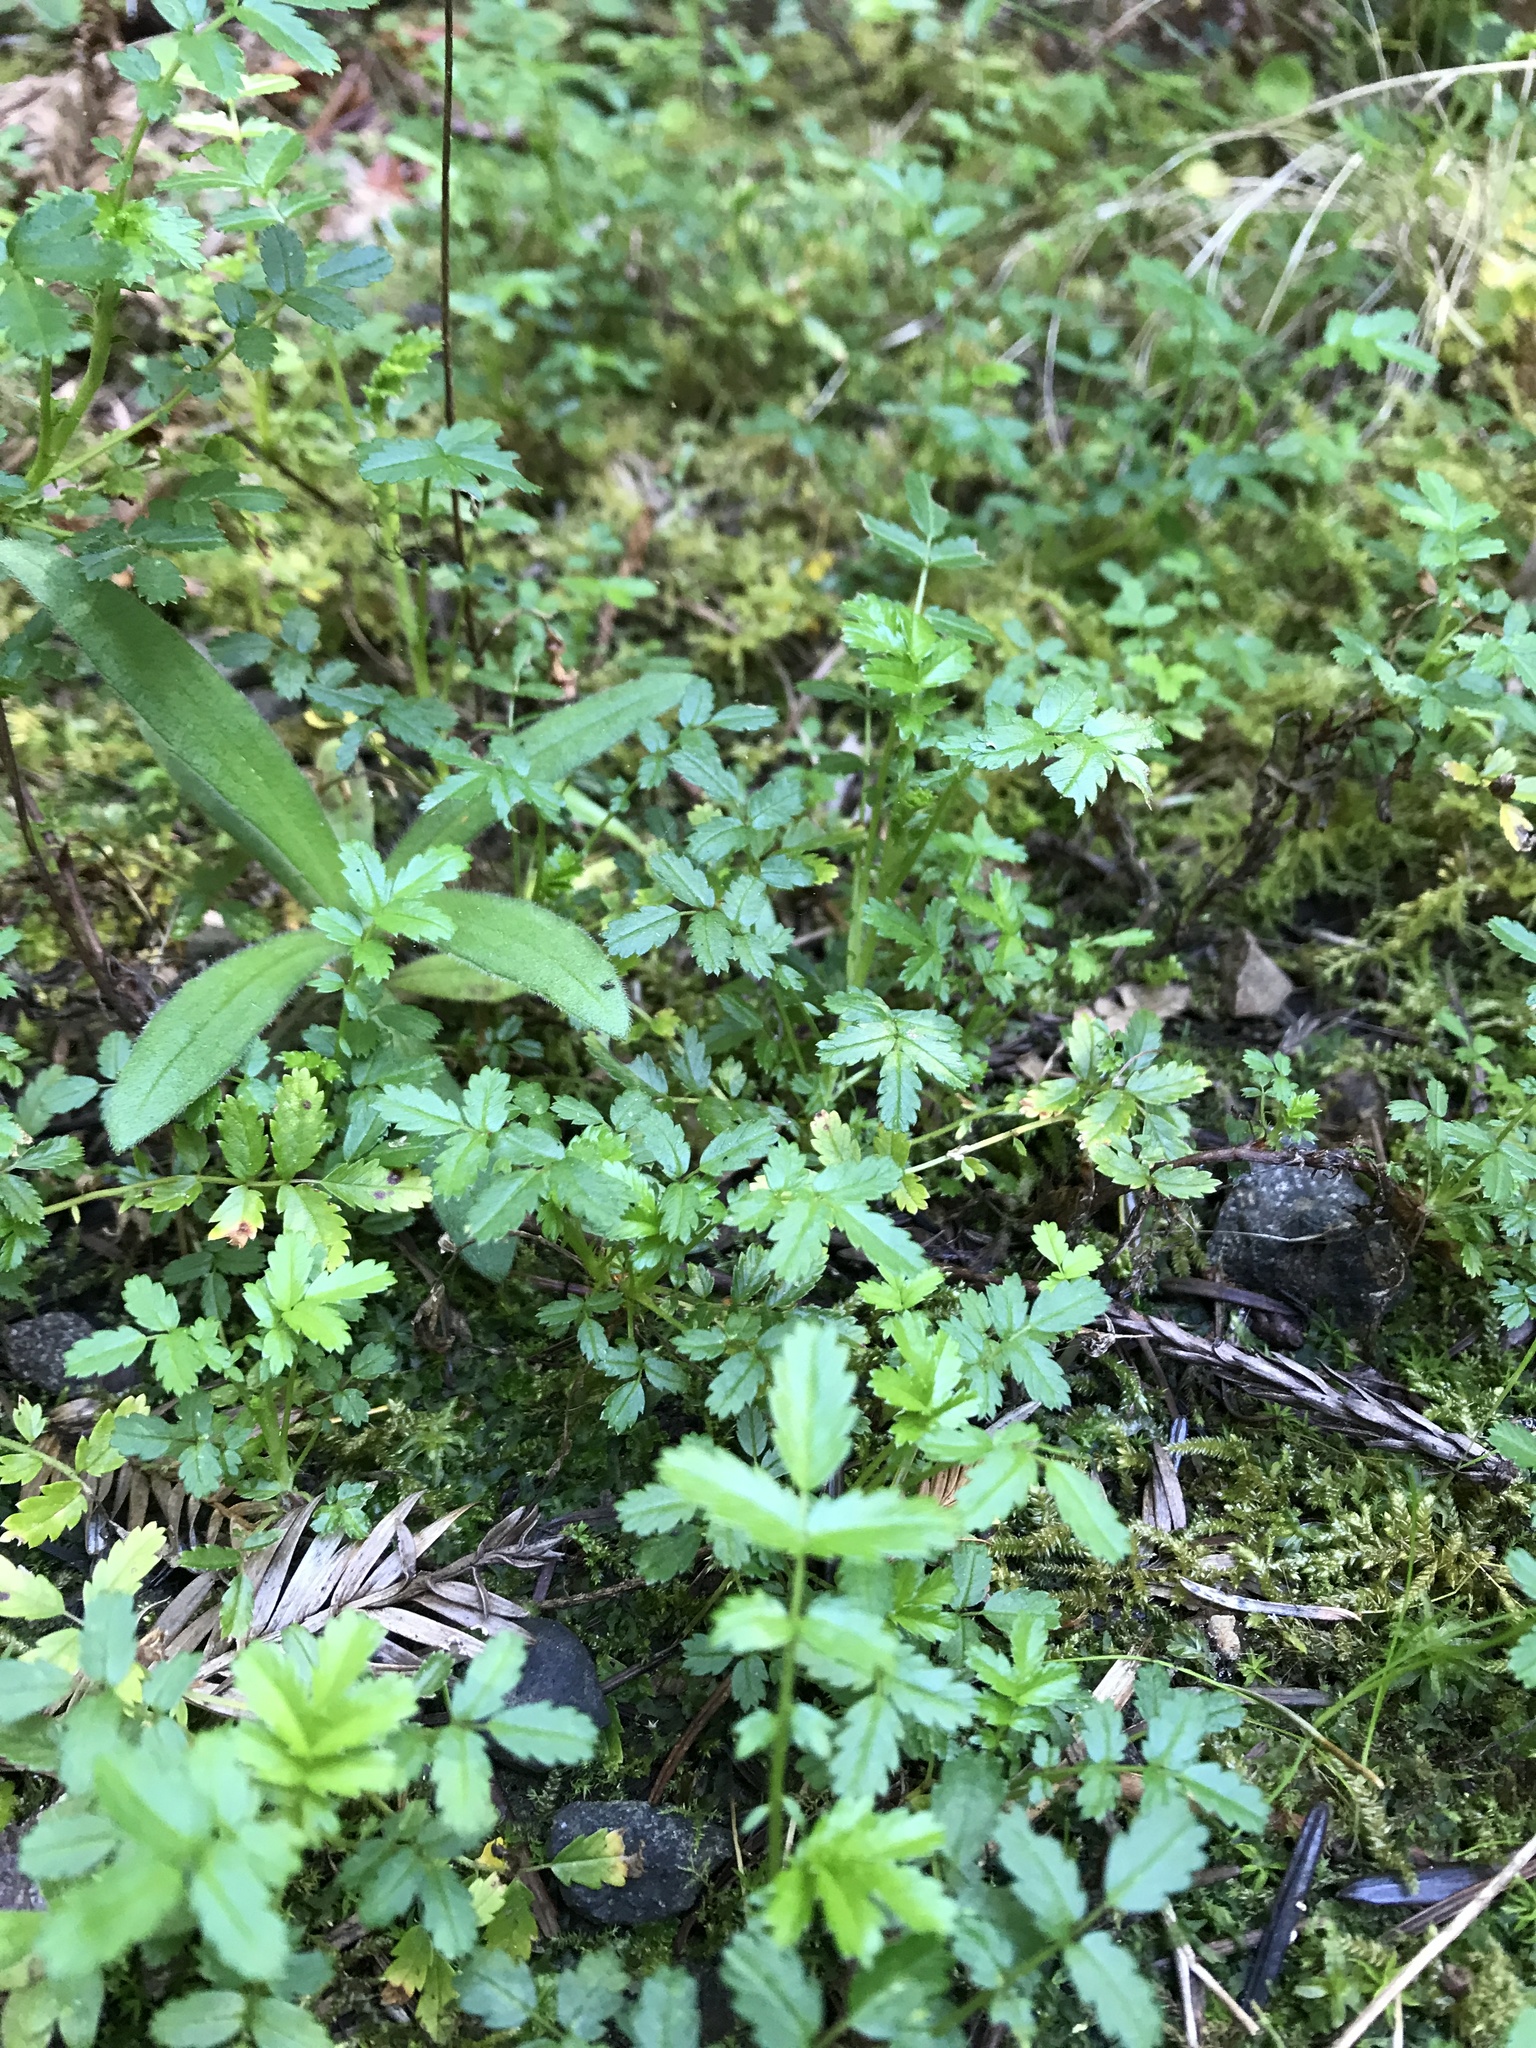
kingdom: Plantae
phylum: Tracheophyta
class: Magnoliopsida
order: Rosales
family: Rosaceae
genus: Acaena
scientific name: Acaena pallida
